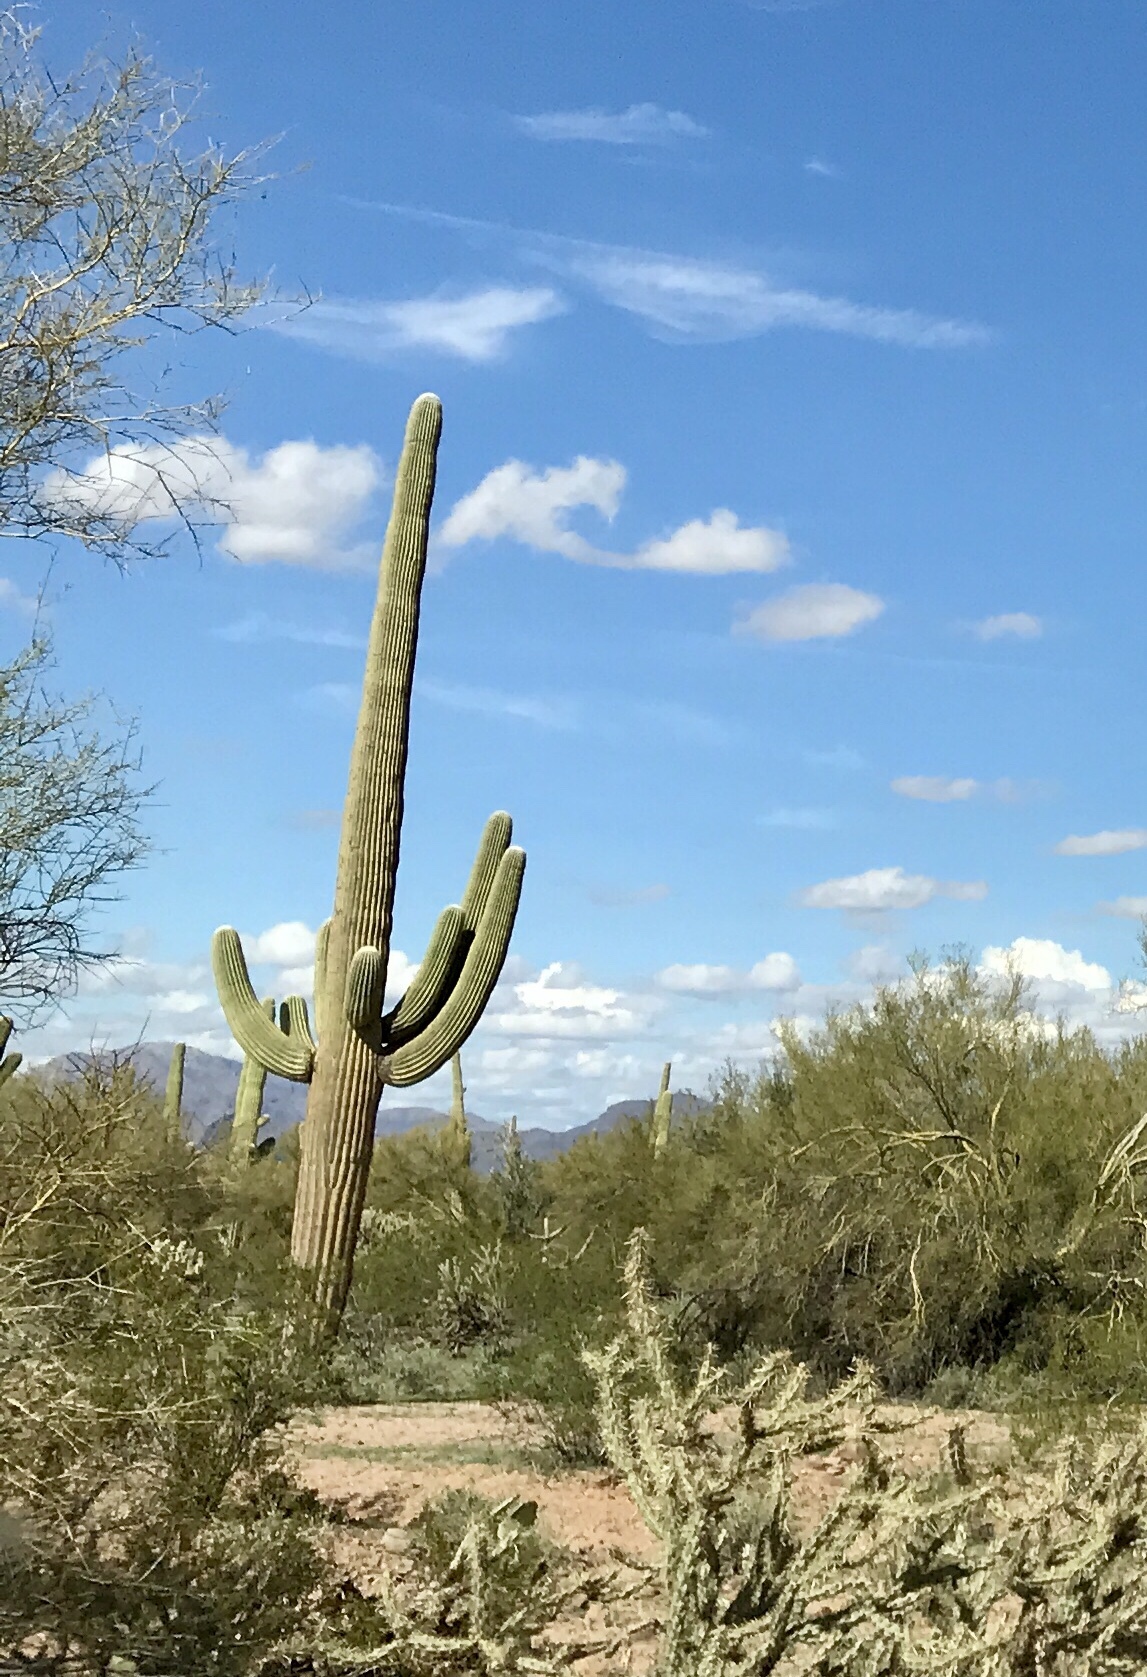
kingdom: Plantae
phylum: Tracheophyta
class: Magnoliopsida
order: Caryophyllales
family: Cactaceae
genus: Carnegiea
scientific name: Carnegiea gigantea
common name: Saguaro
